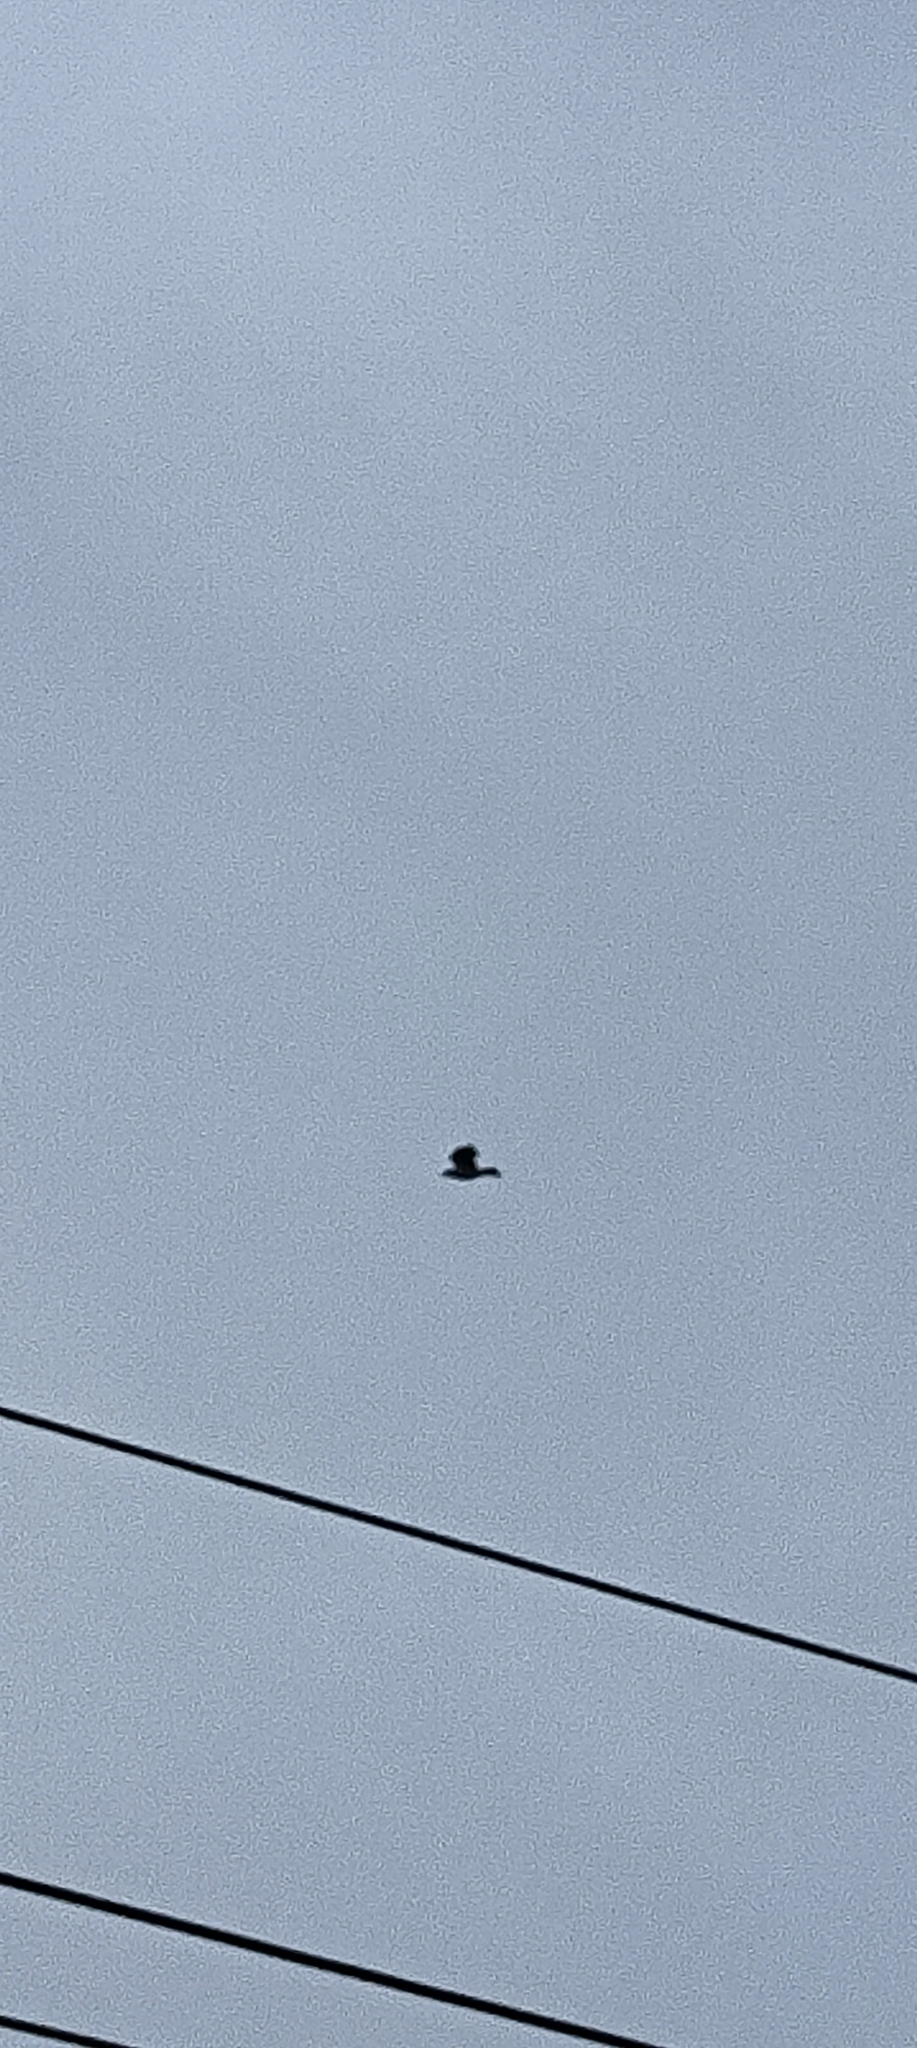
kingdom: Animalia
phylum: Chordata
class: Aves
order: Passeriformes
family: Corvidae
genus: Corvus
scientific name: Corvus cornix
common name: Hooded crow
